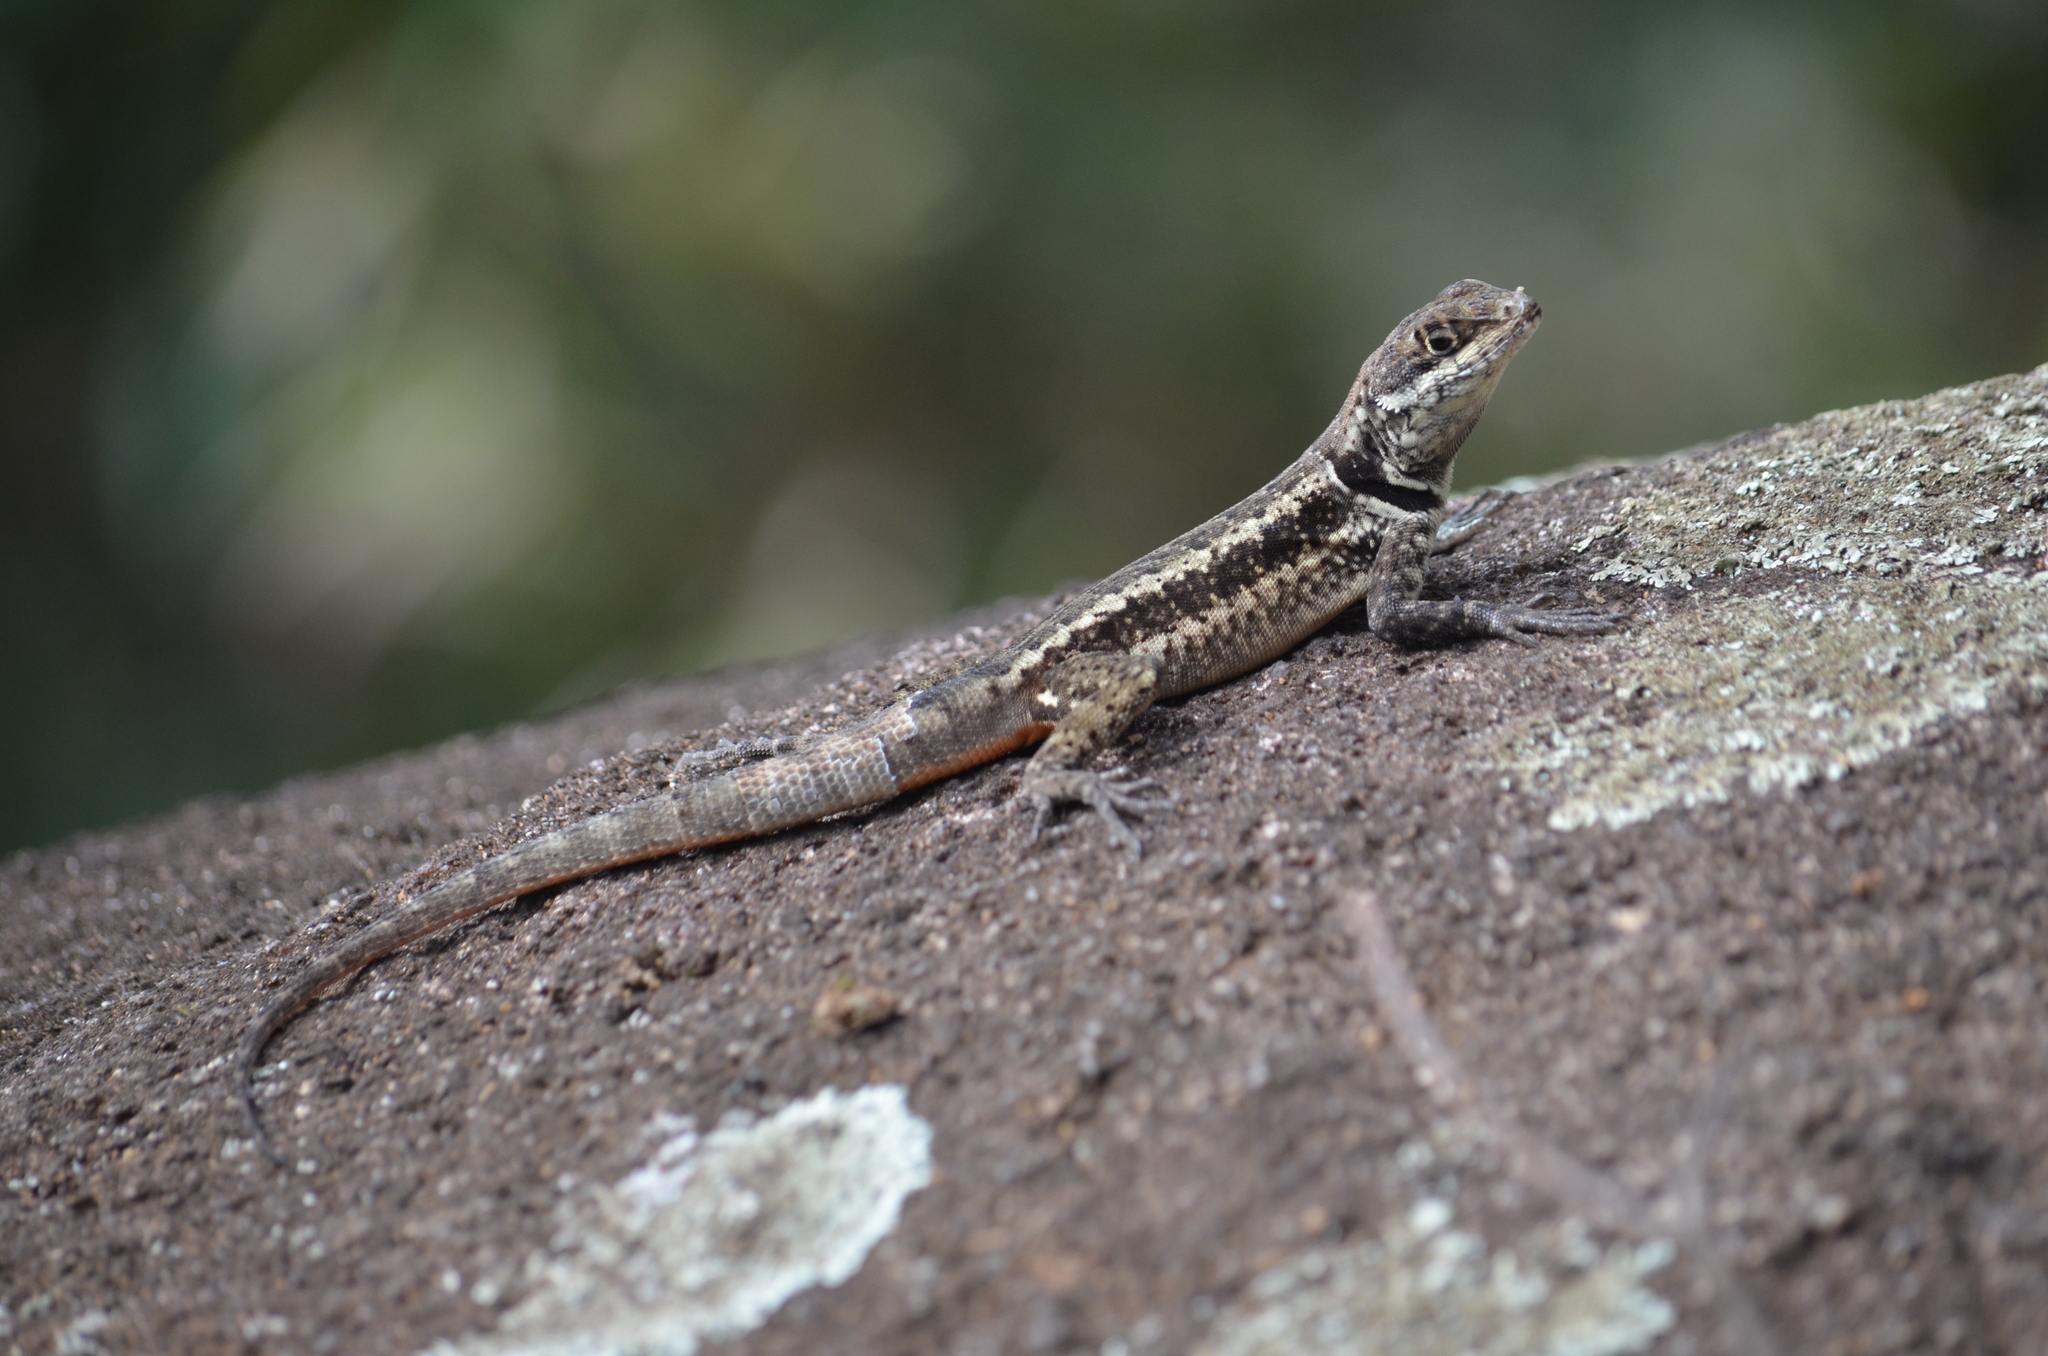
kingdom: Animalia
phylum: Chordata
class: Squamata
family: Tropiduridae
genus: Tropidurus
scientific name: Tropidurus torquatus
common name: Amazon lava lizard
